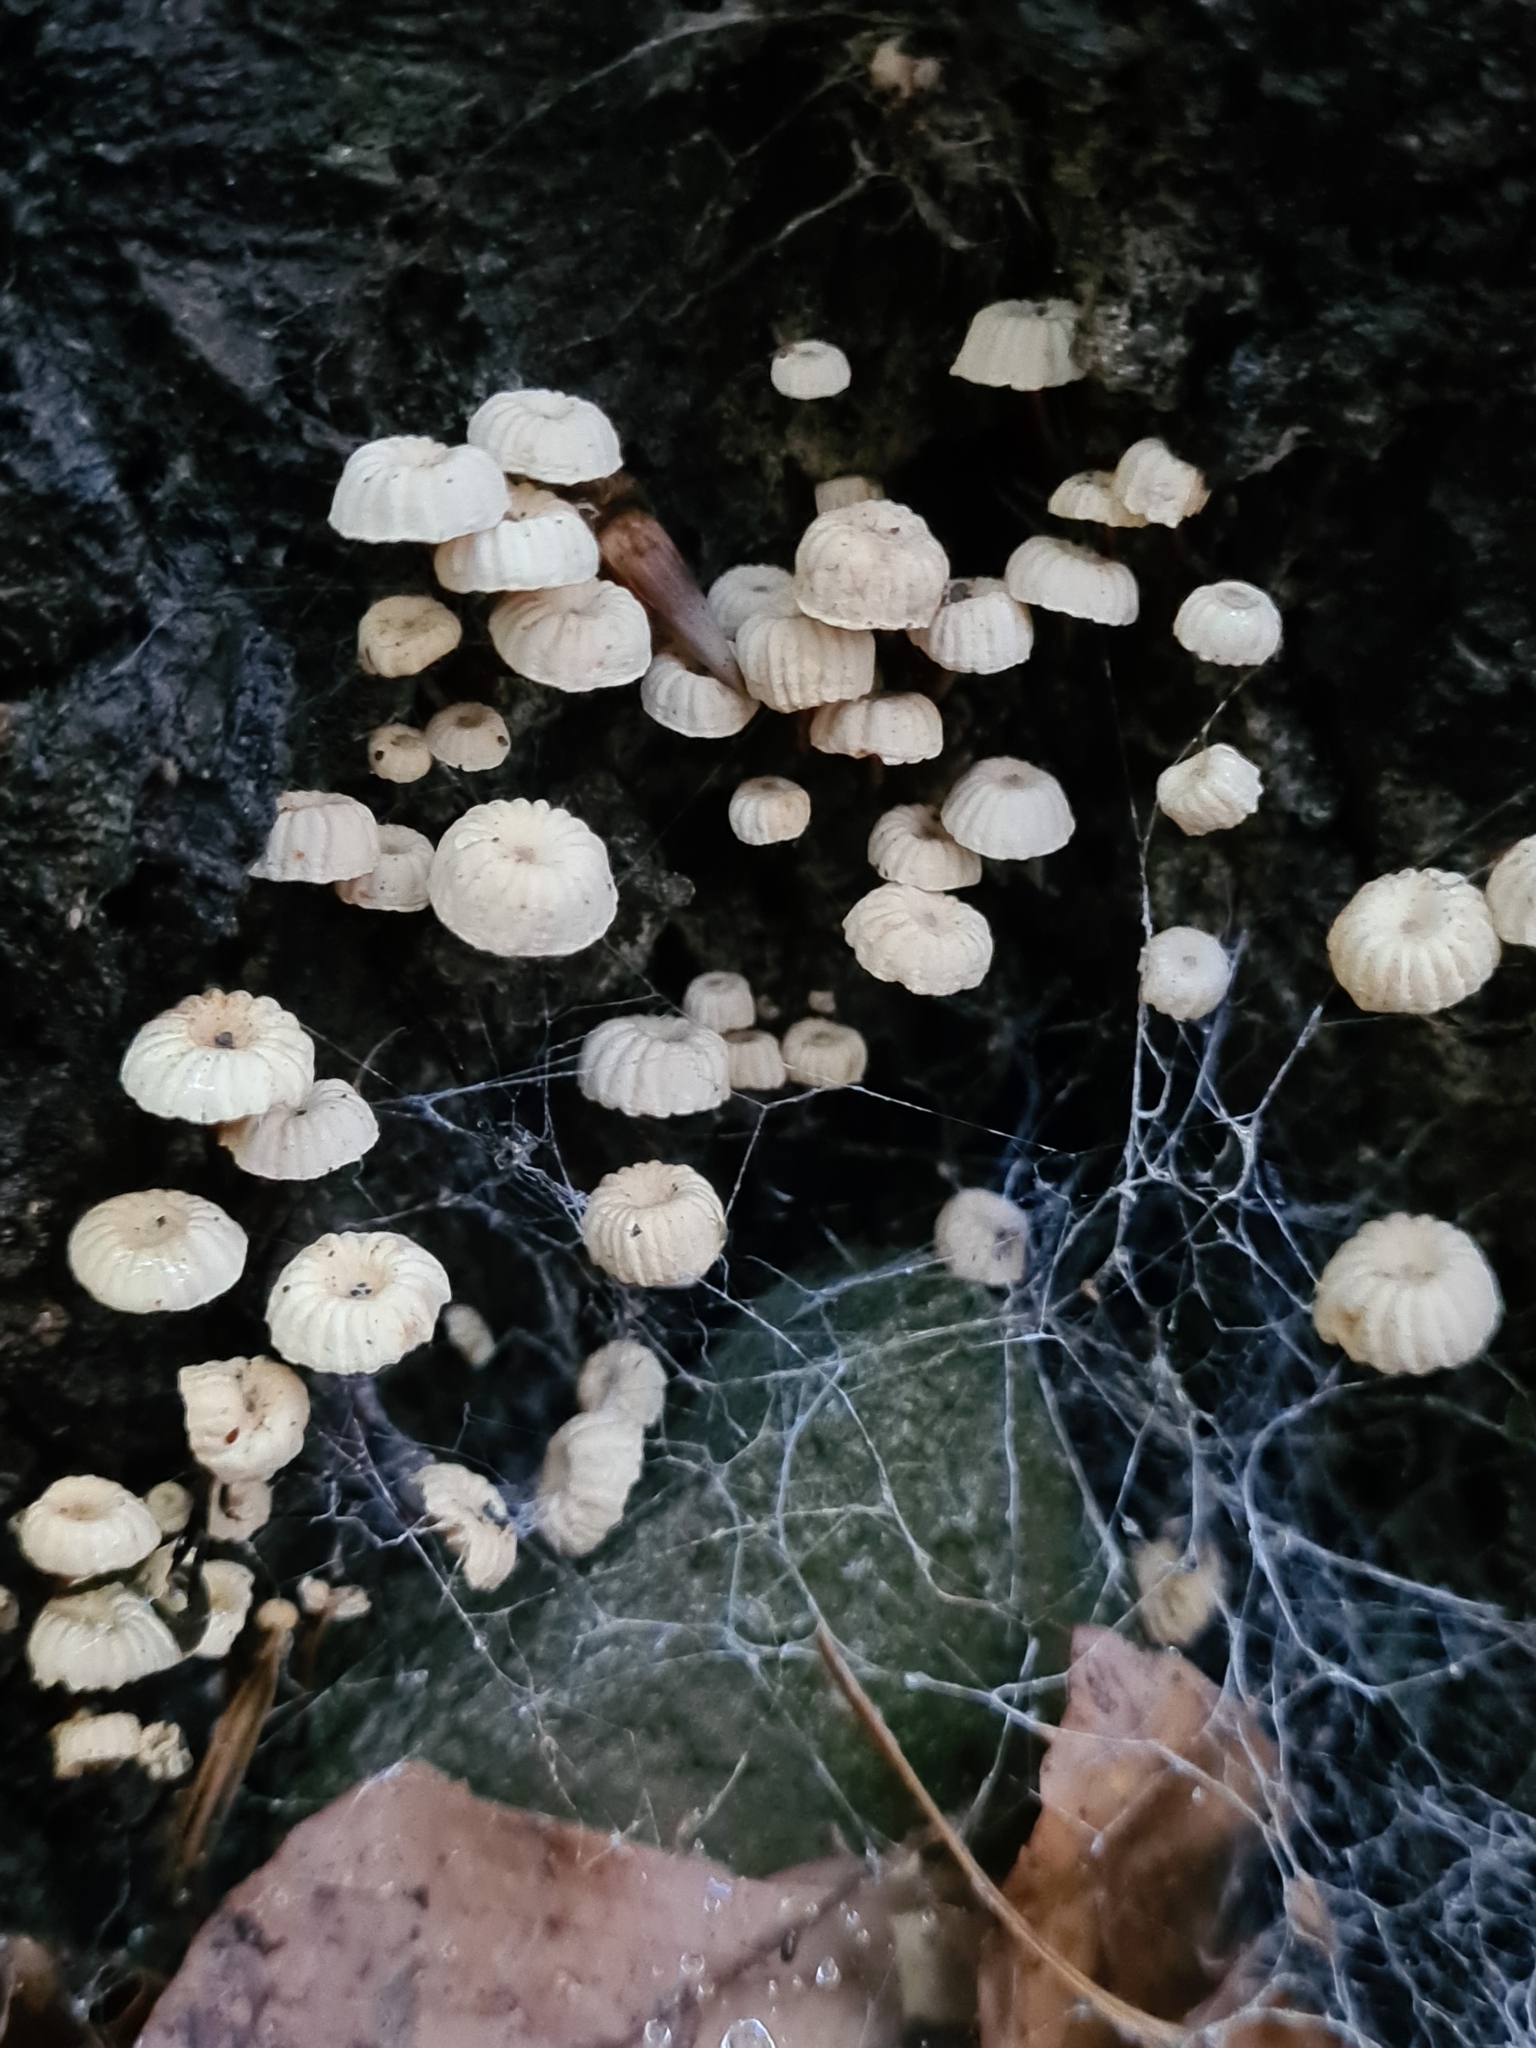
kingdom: Fungi
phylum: Basidiomycota
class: Agaricomycetes
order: Agaricales
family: Marasmiaceae
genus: Marasmius
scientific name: Marasmius rotula
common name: Collared parachute
